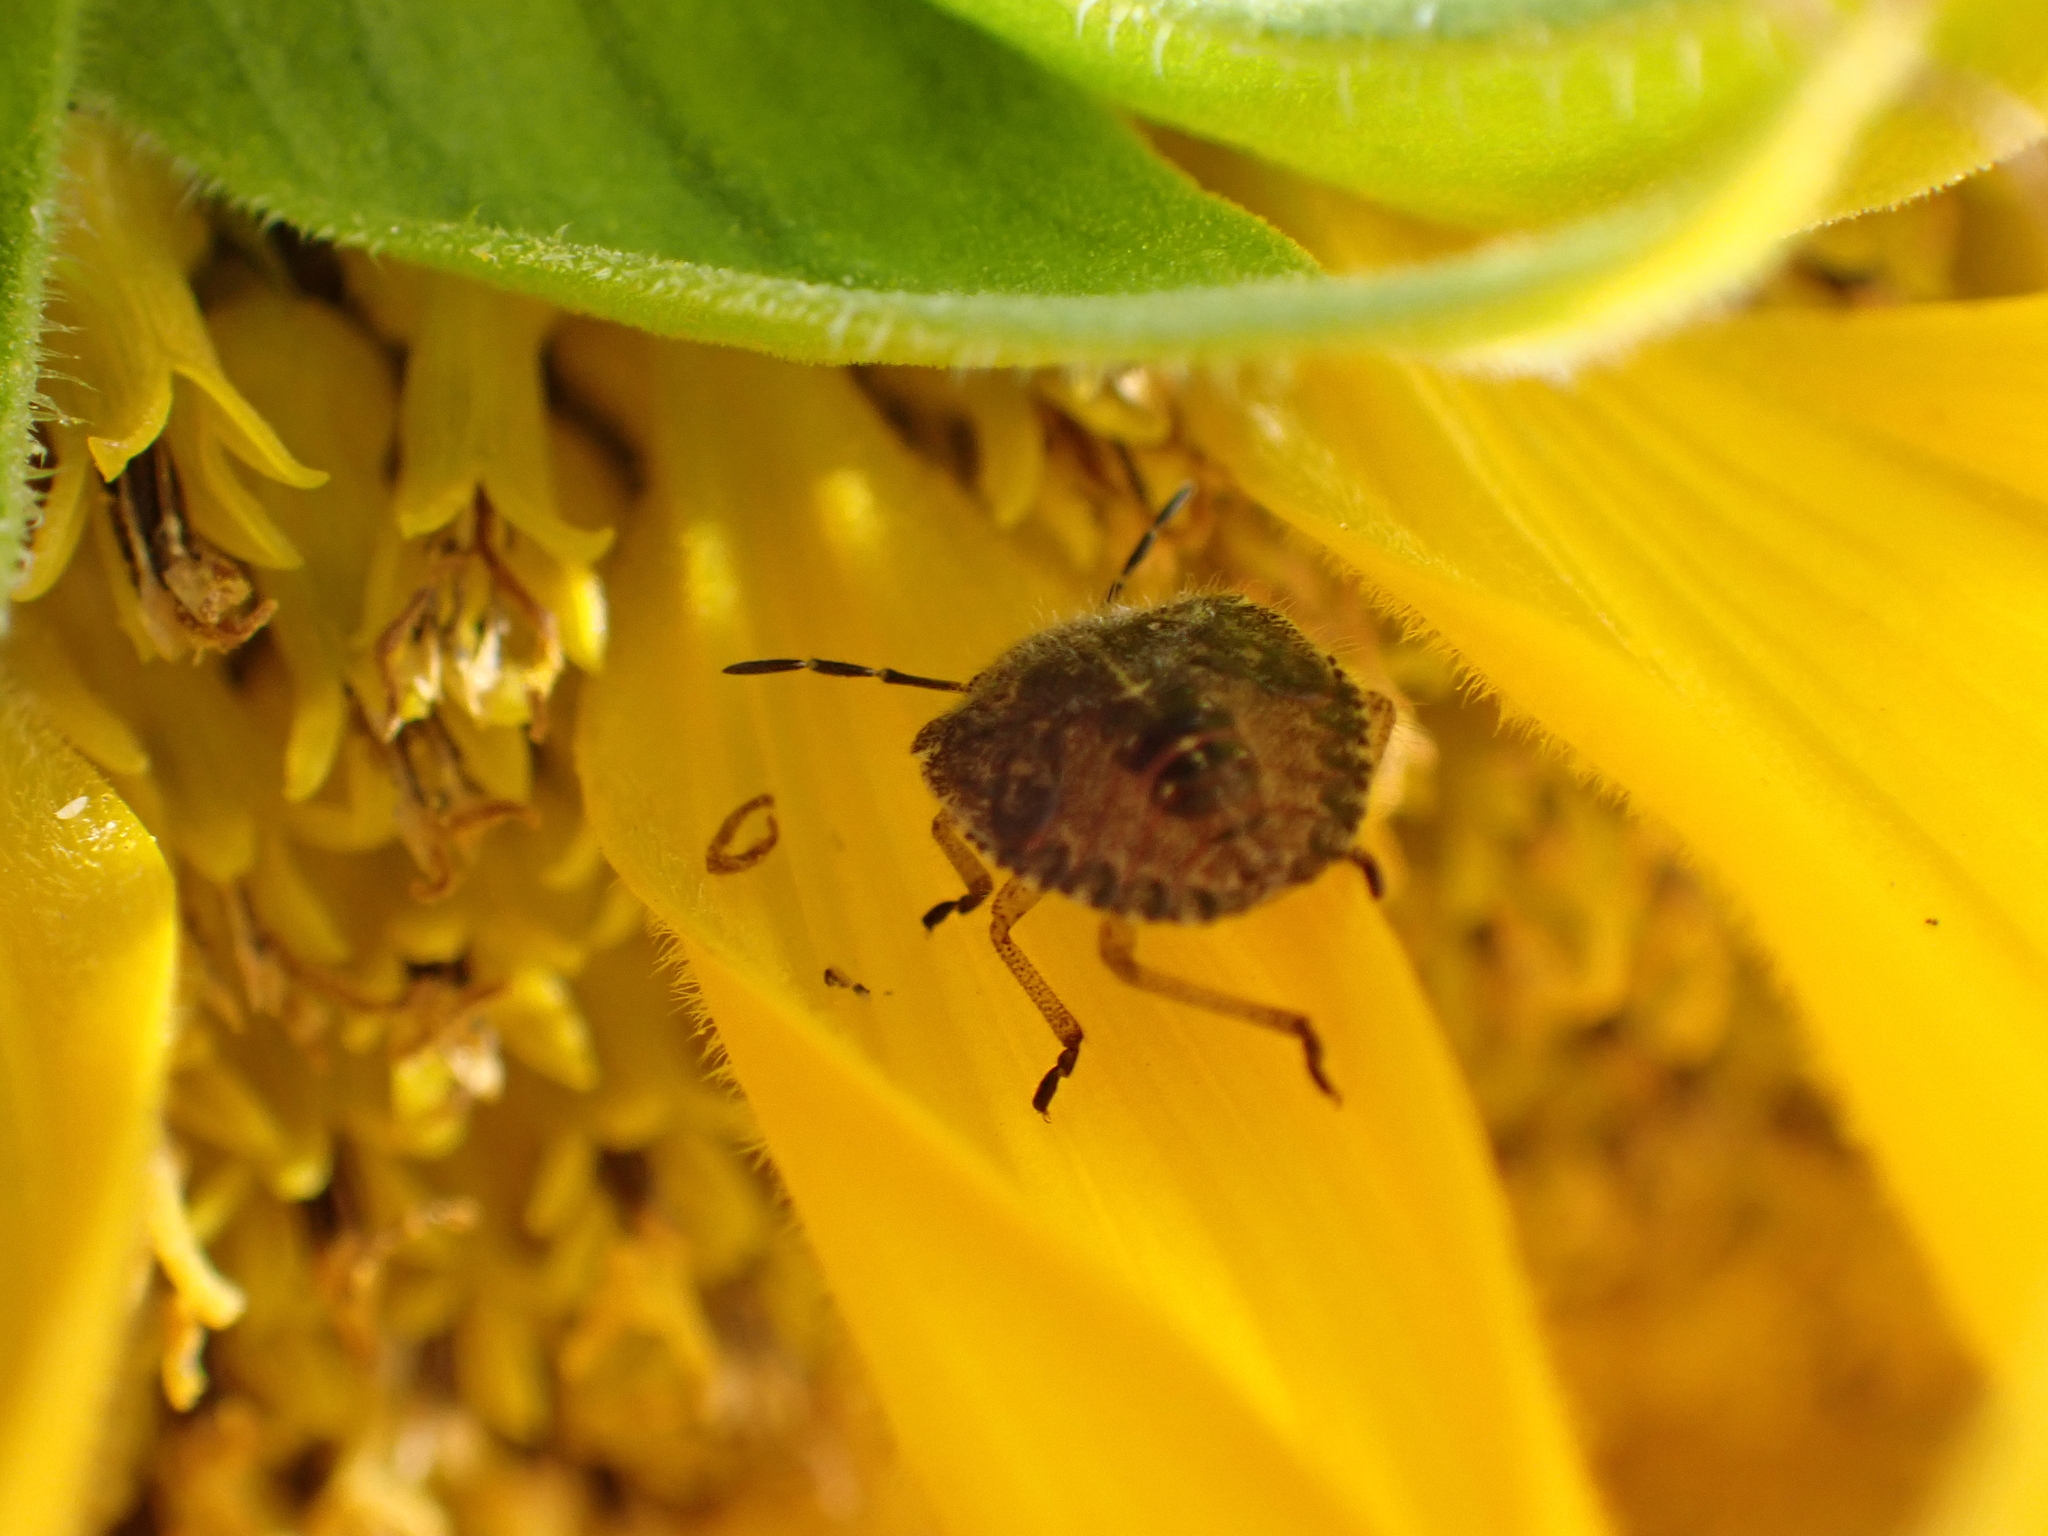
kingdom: Animalia
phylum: Arthropoda
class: Insecta
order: Hemiptera
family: Pentatomidae
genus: Dolycoris
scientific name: Dolycoris baccarum
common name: Sloe bug
